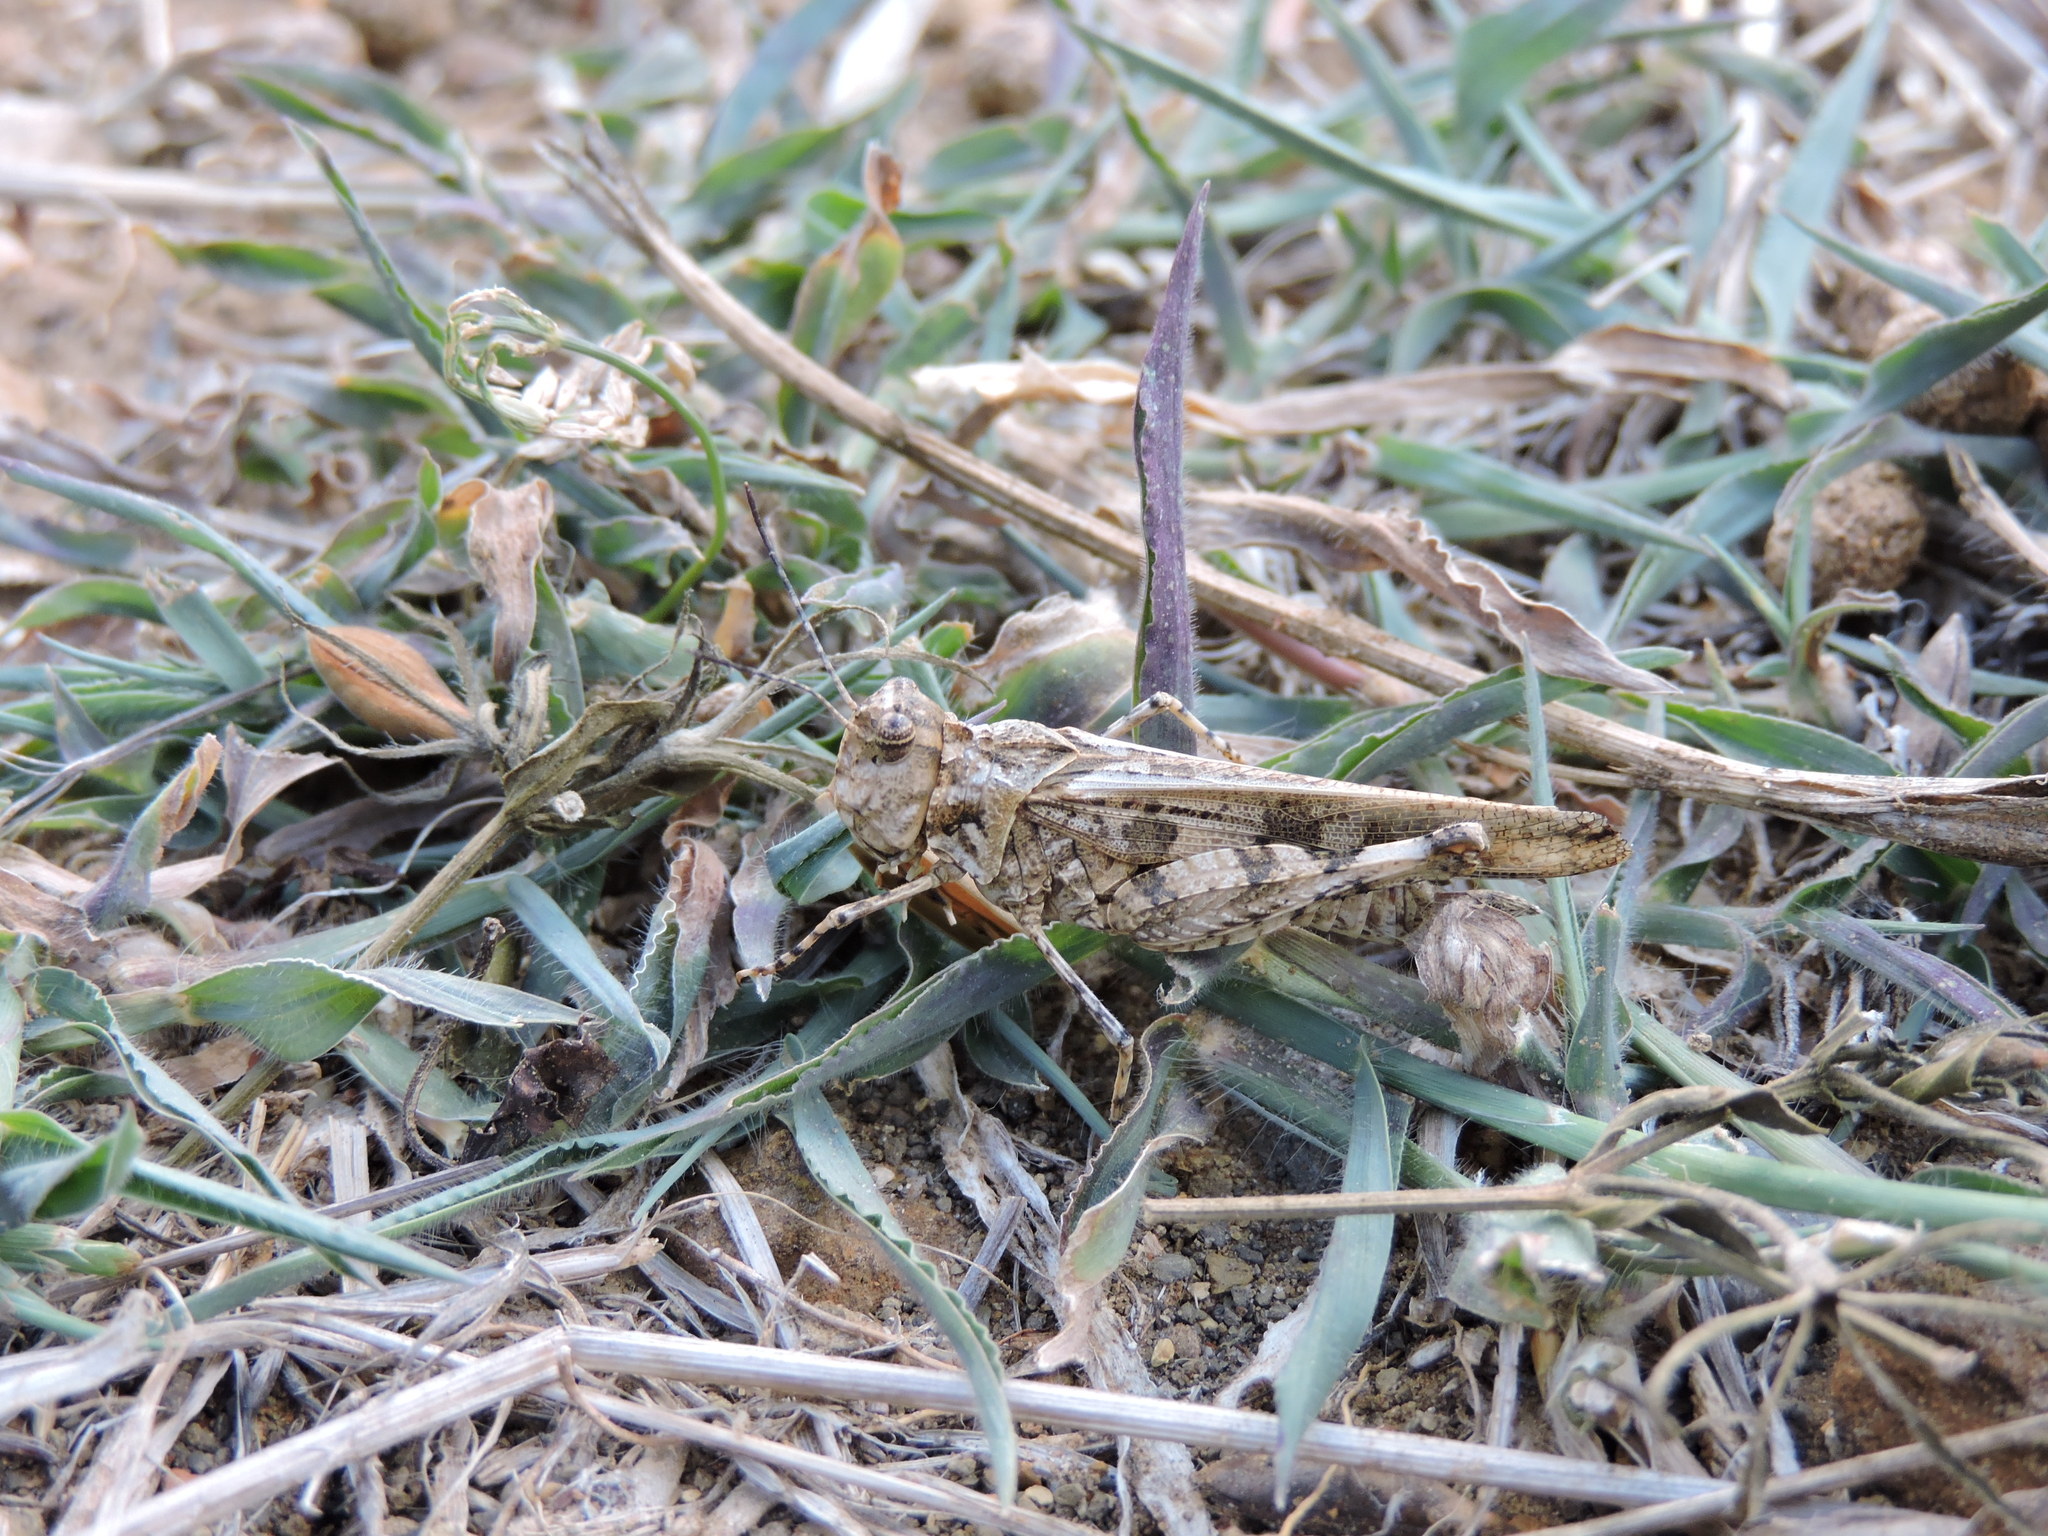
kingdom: Animalia
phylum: Arthropoda
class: Insecta
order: Orthoptera
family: Acrididae
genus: Trachyrhachys
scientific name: Trachyrhachys kiowa
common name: Kiowa grasshopper
